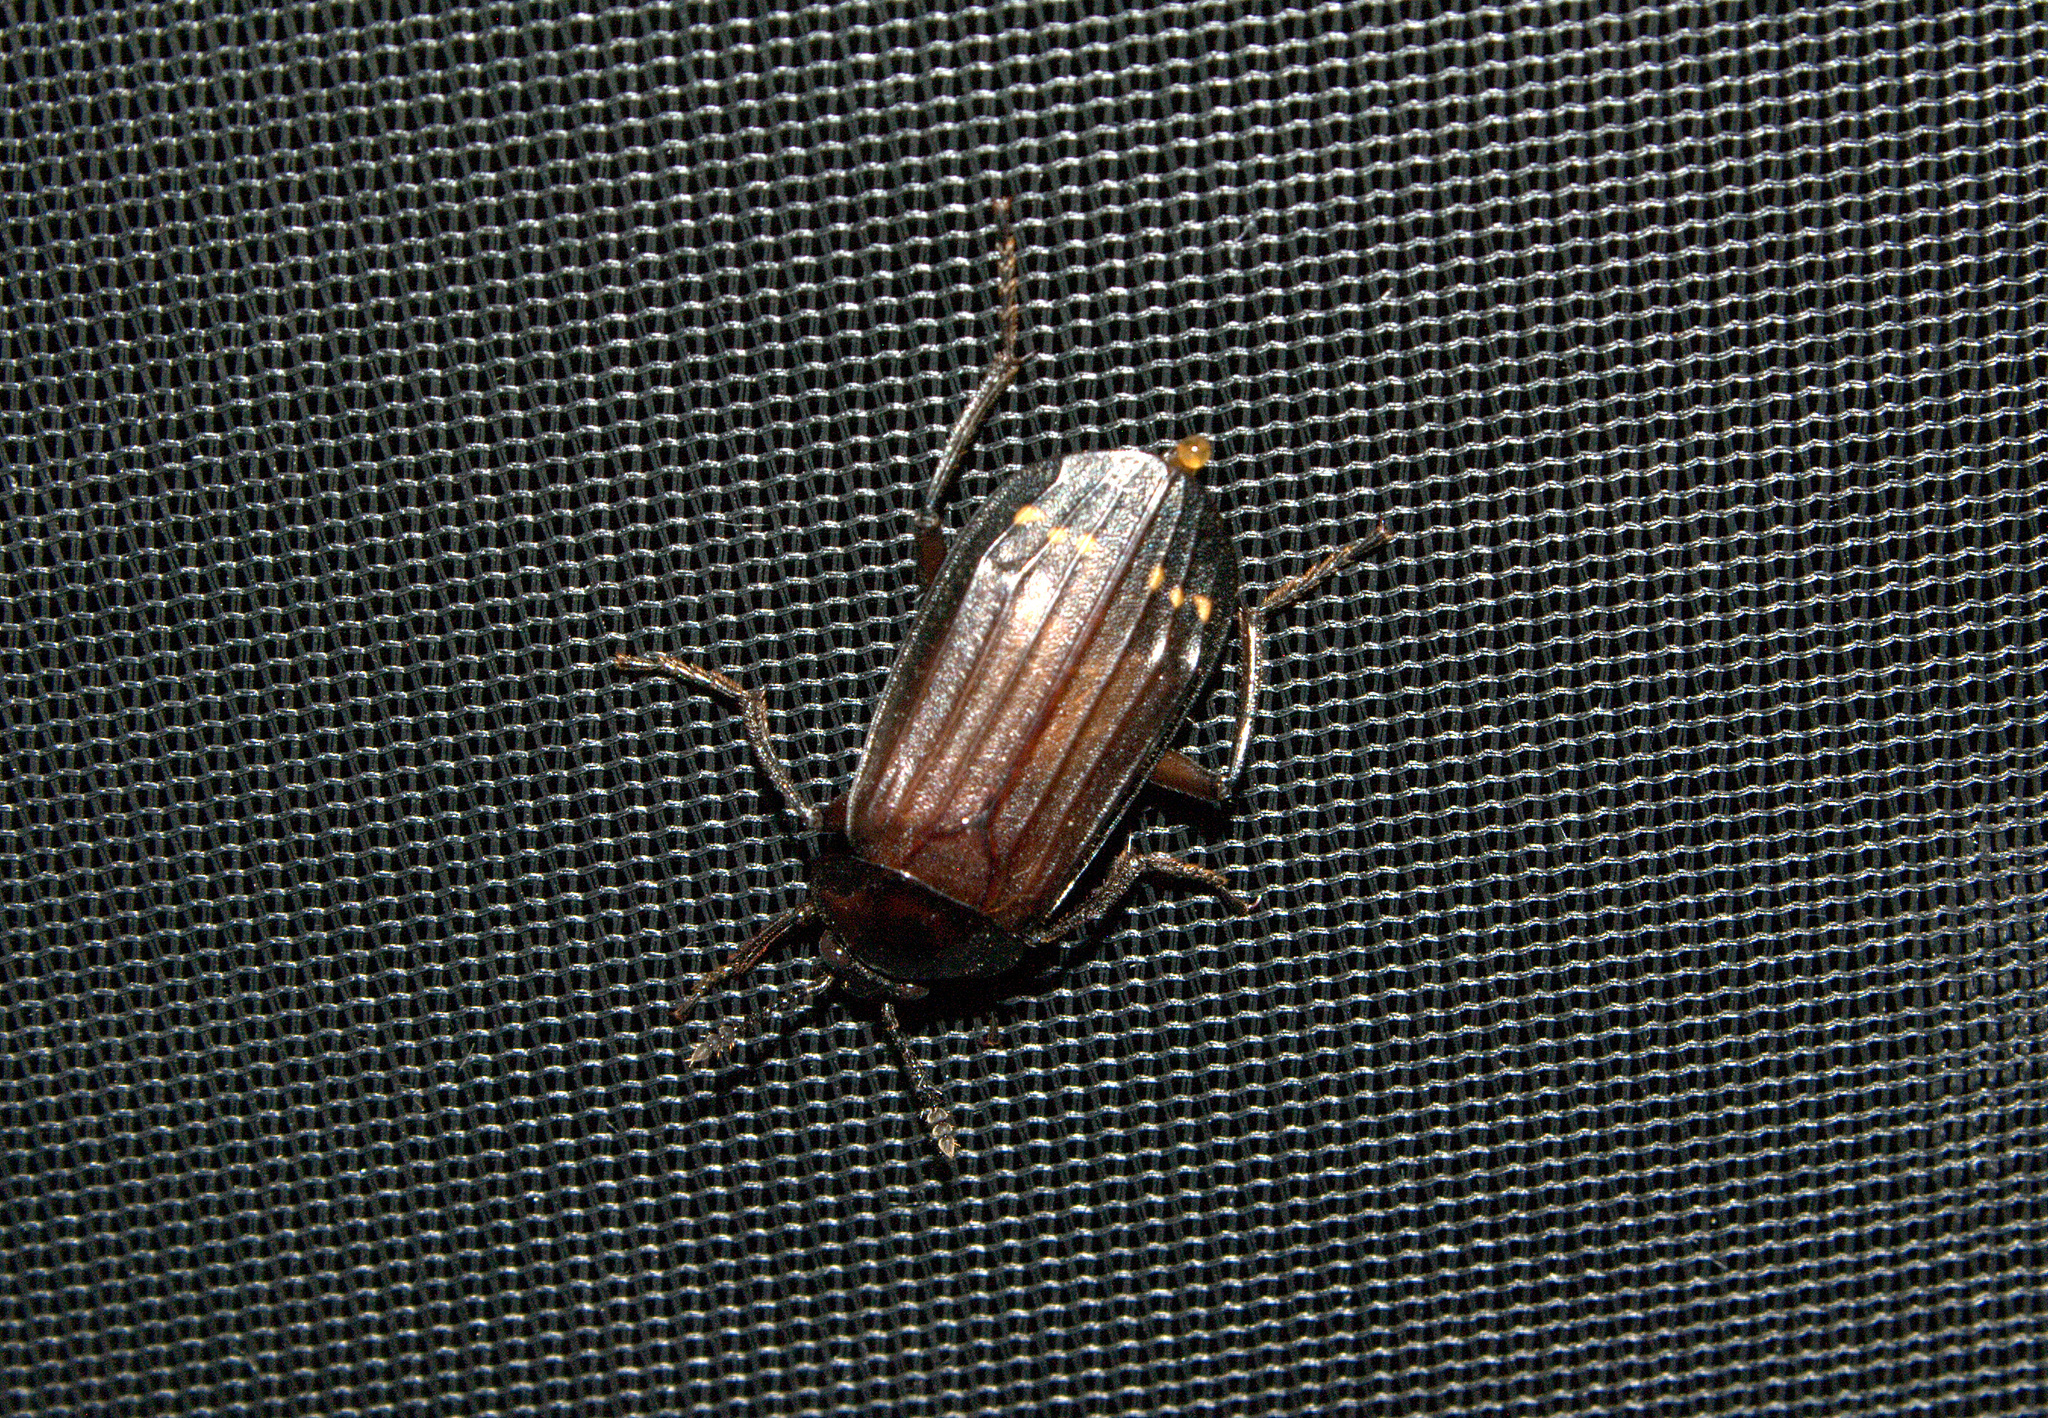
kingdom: Animalia
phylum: Arthropoda
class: Insecta
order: Coleoptera
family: Staphylinidae
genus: Necrodes
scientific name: Necrodes surinamensis
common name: Red-lined carrion beetle
